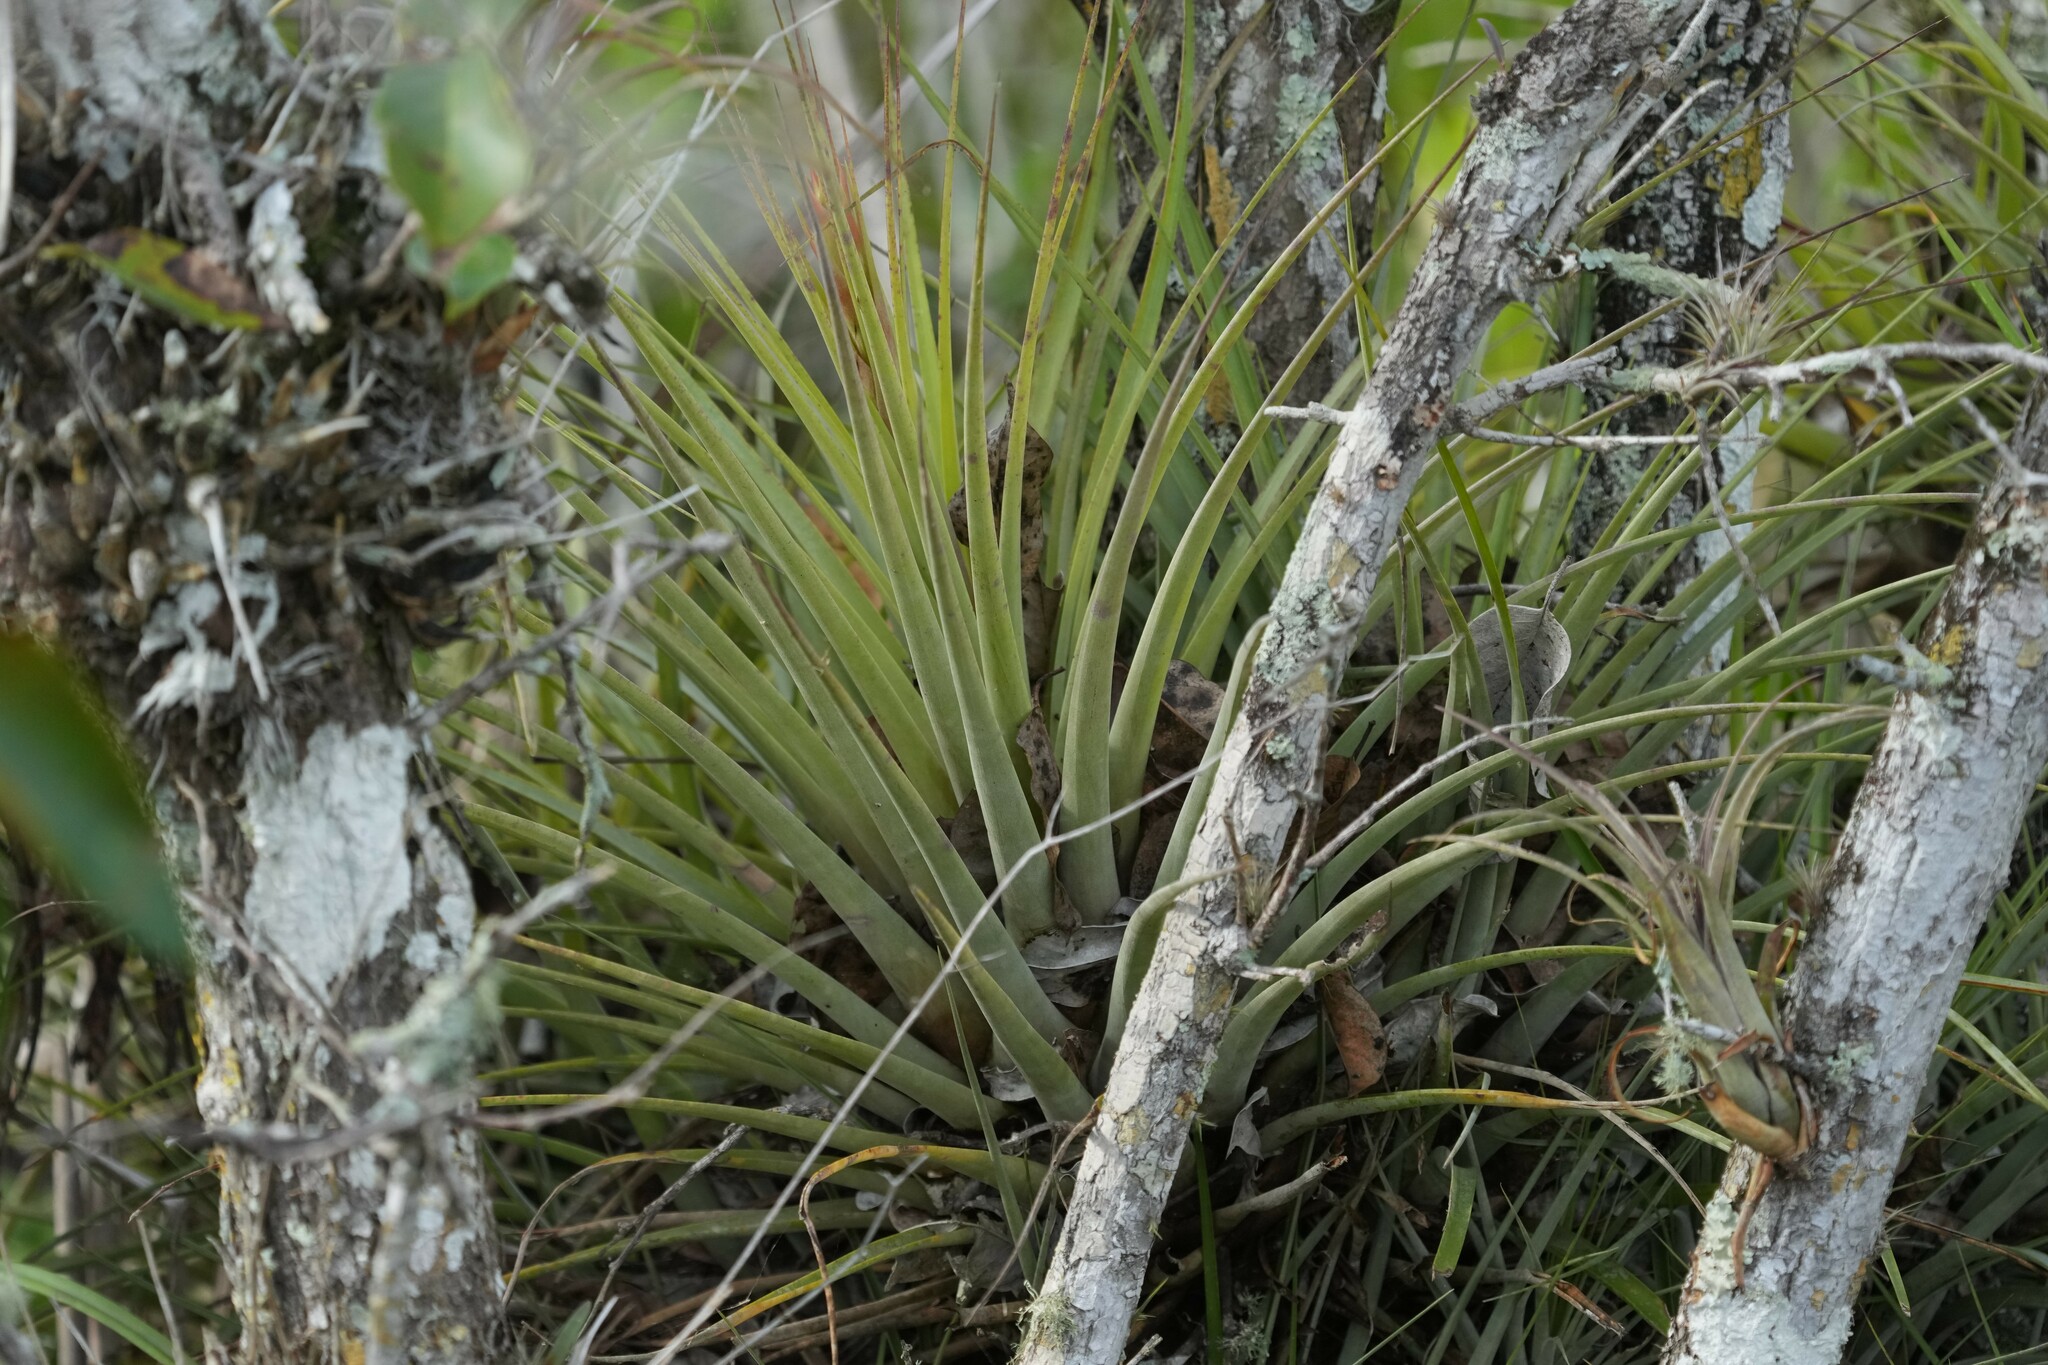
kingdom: Plantae
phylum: Tracheophyta
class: Liliopsida
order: Poales
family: Bromeliaceae
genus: Tillandsia
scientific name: Tillandsia fasciculata
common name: Giant airplant
